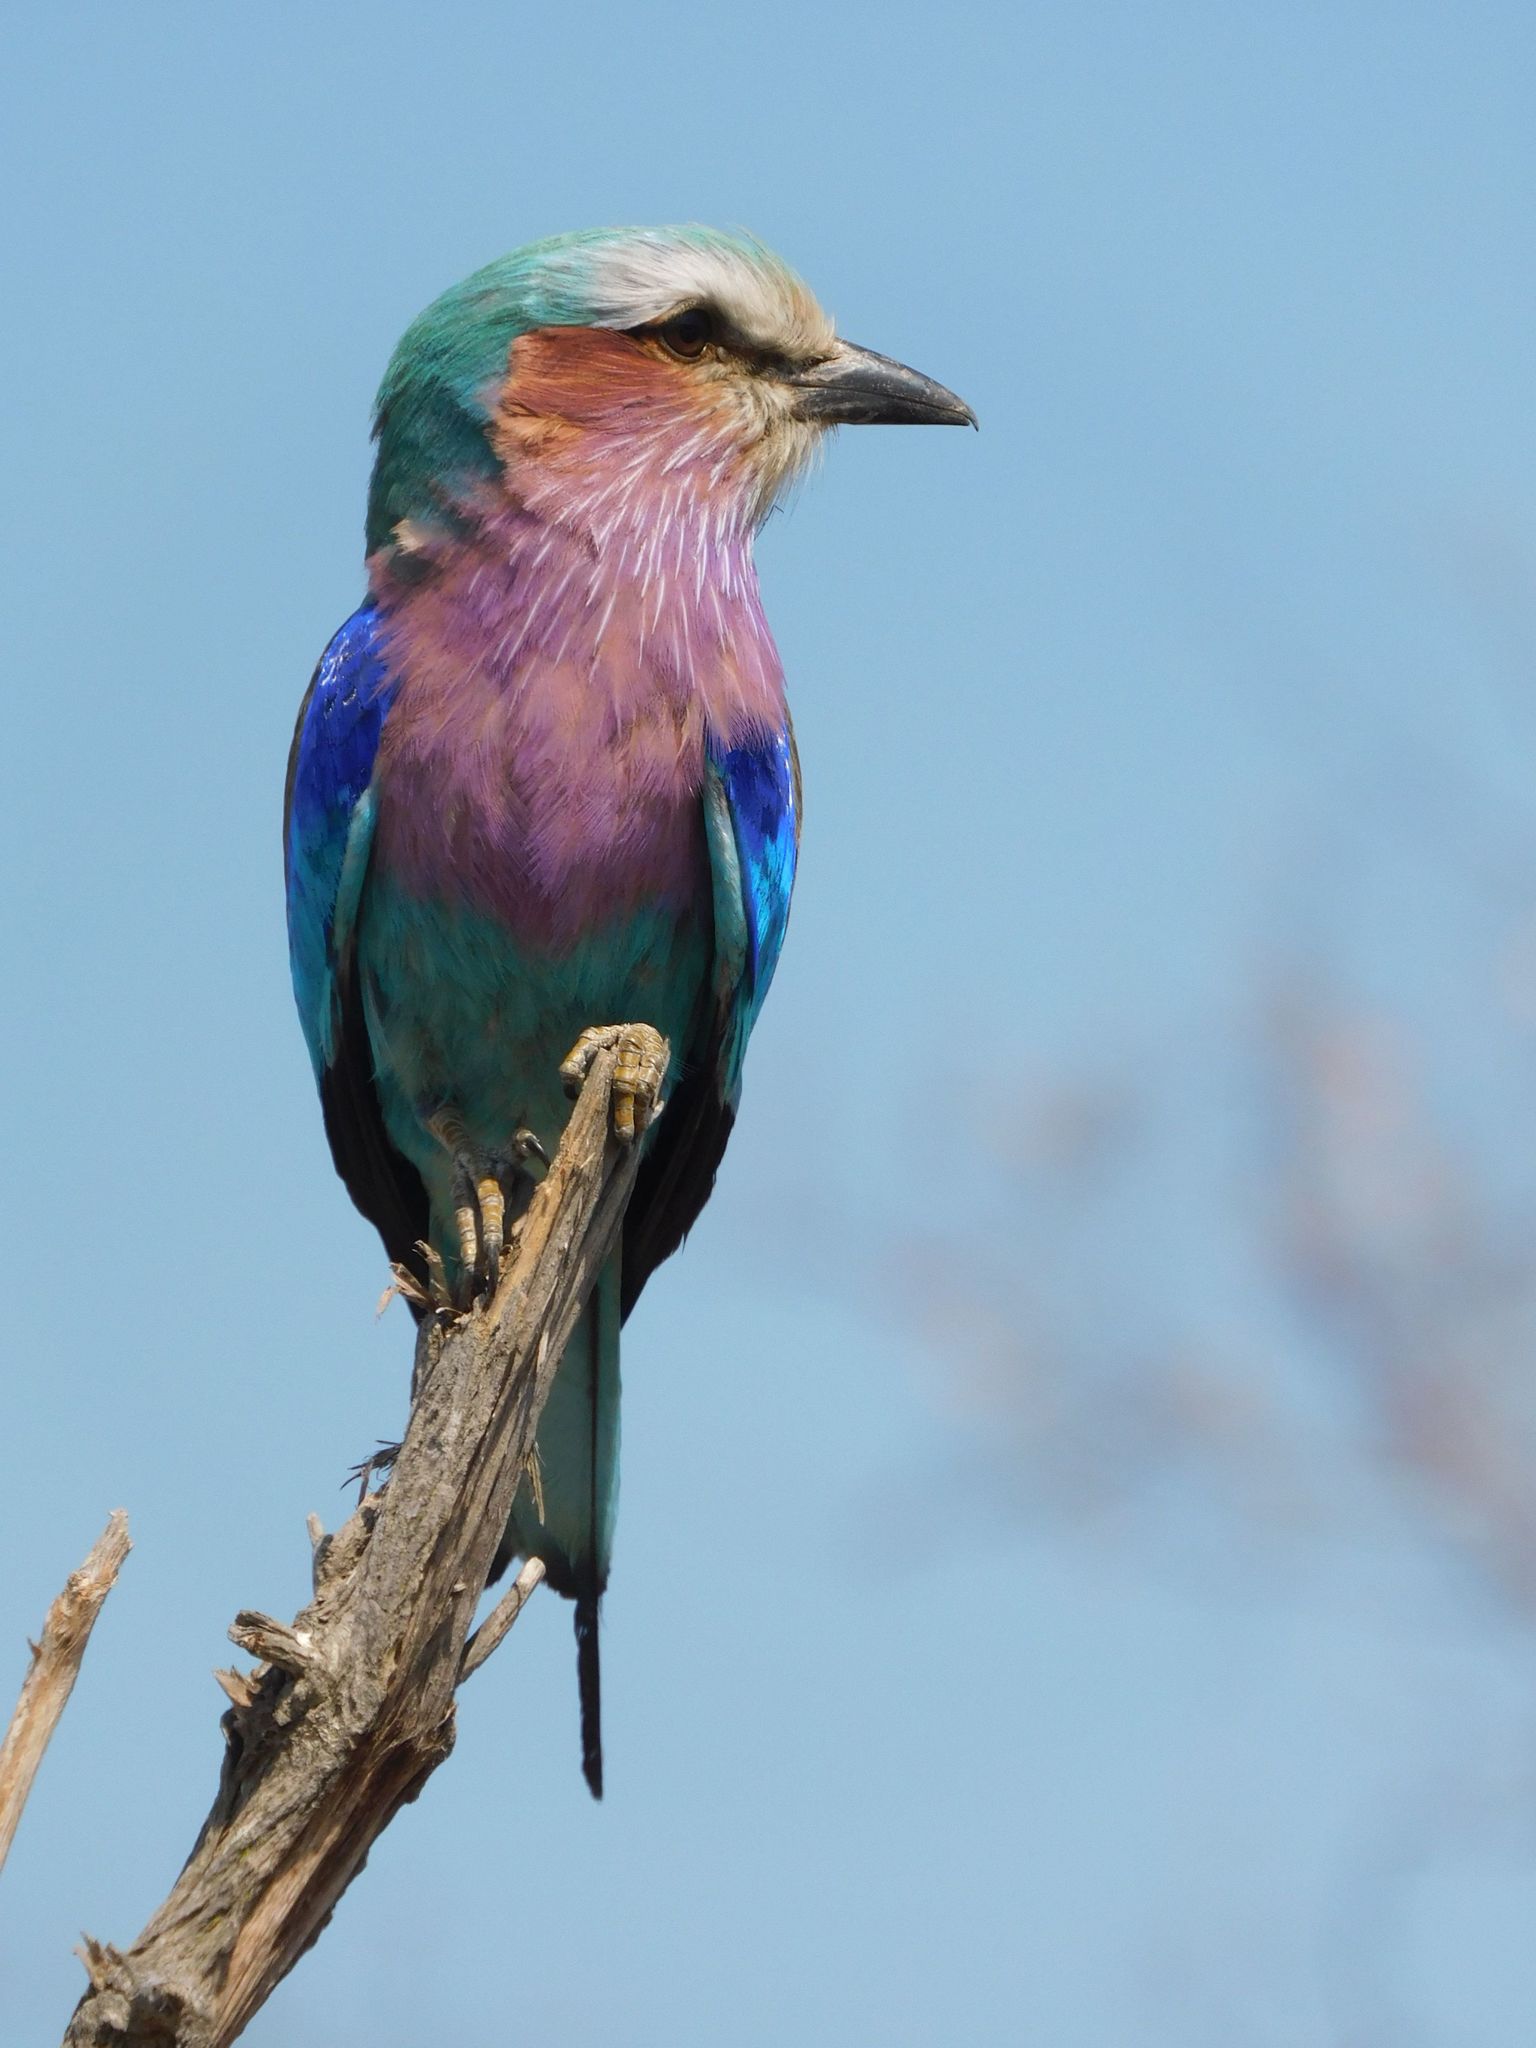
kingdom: Animalia
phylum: Chordata
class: Aves
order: Coraciiformes
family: Coraciidae
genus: Coracias
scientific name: Coracias caudatus
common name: Lilac-breasted roller
